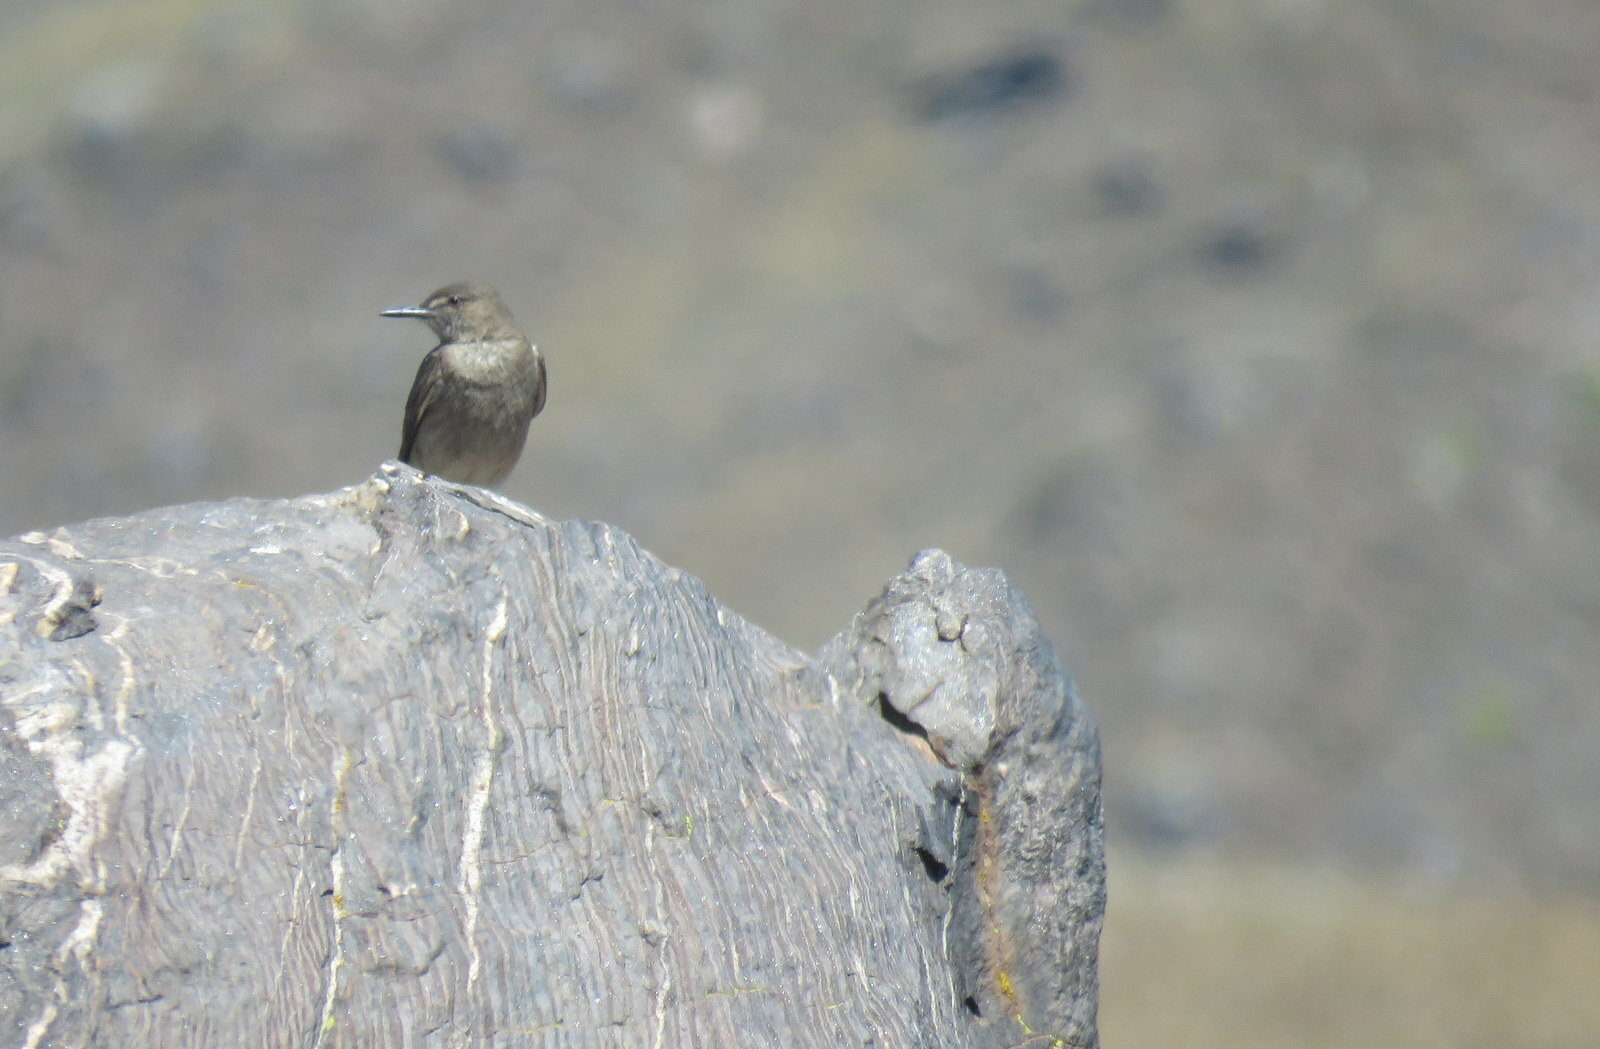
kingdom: Animalia
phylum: Chordata
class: Aves
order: Passeriformes
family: Tyrannidae
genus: Agriornis
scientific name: Agriornis montanus
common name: Black-billed shrike-tyrant
